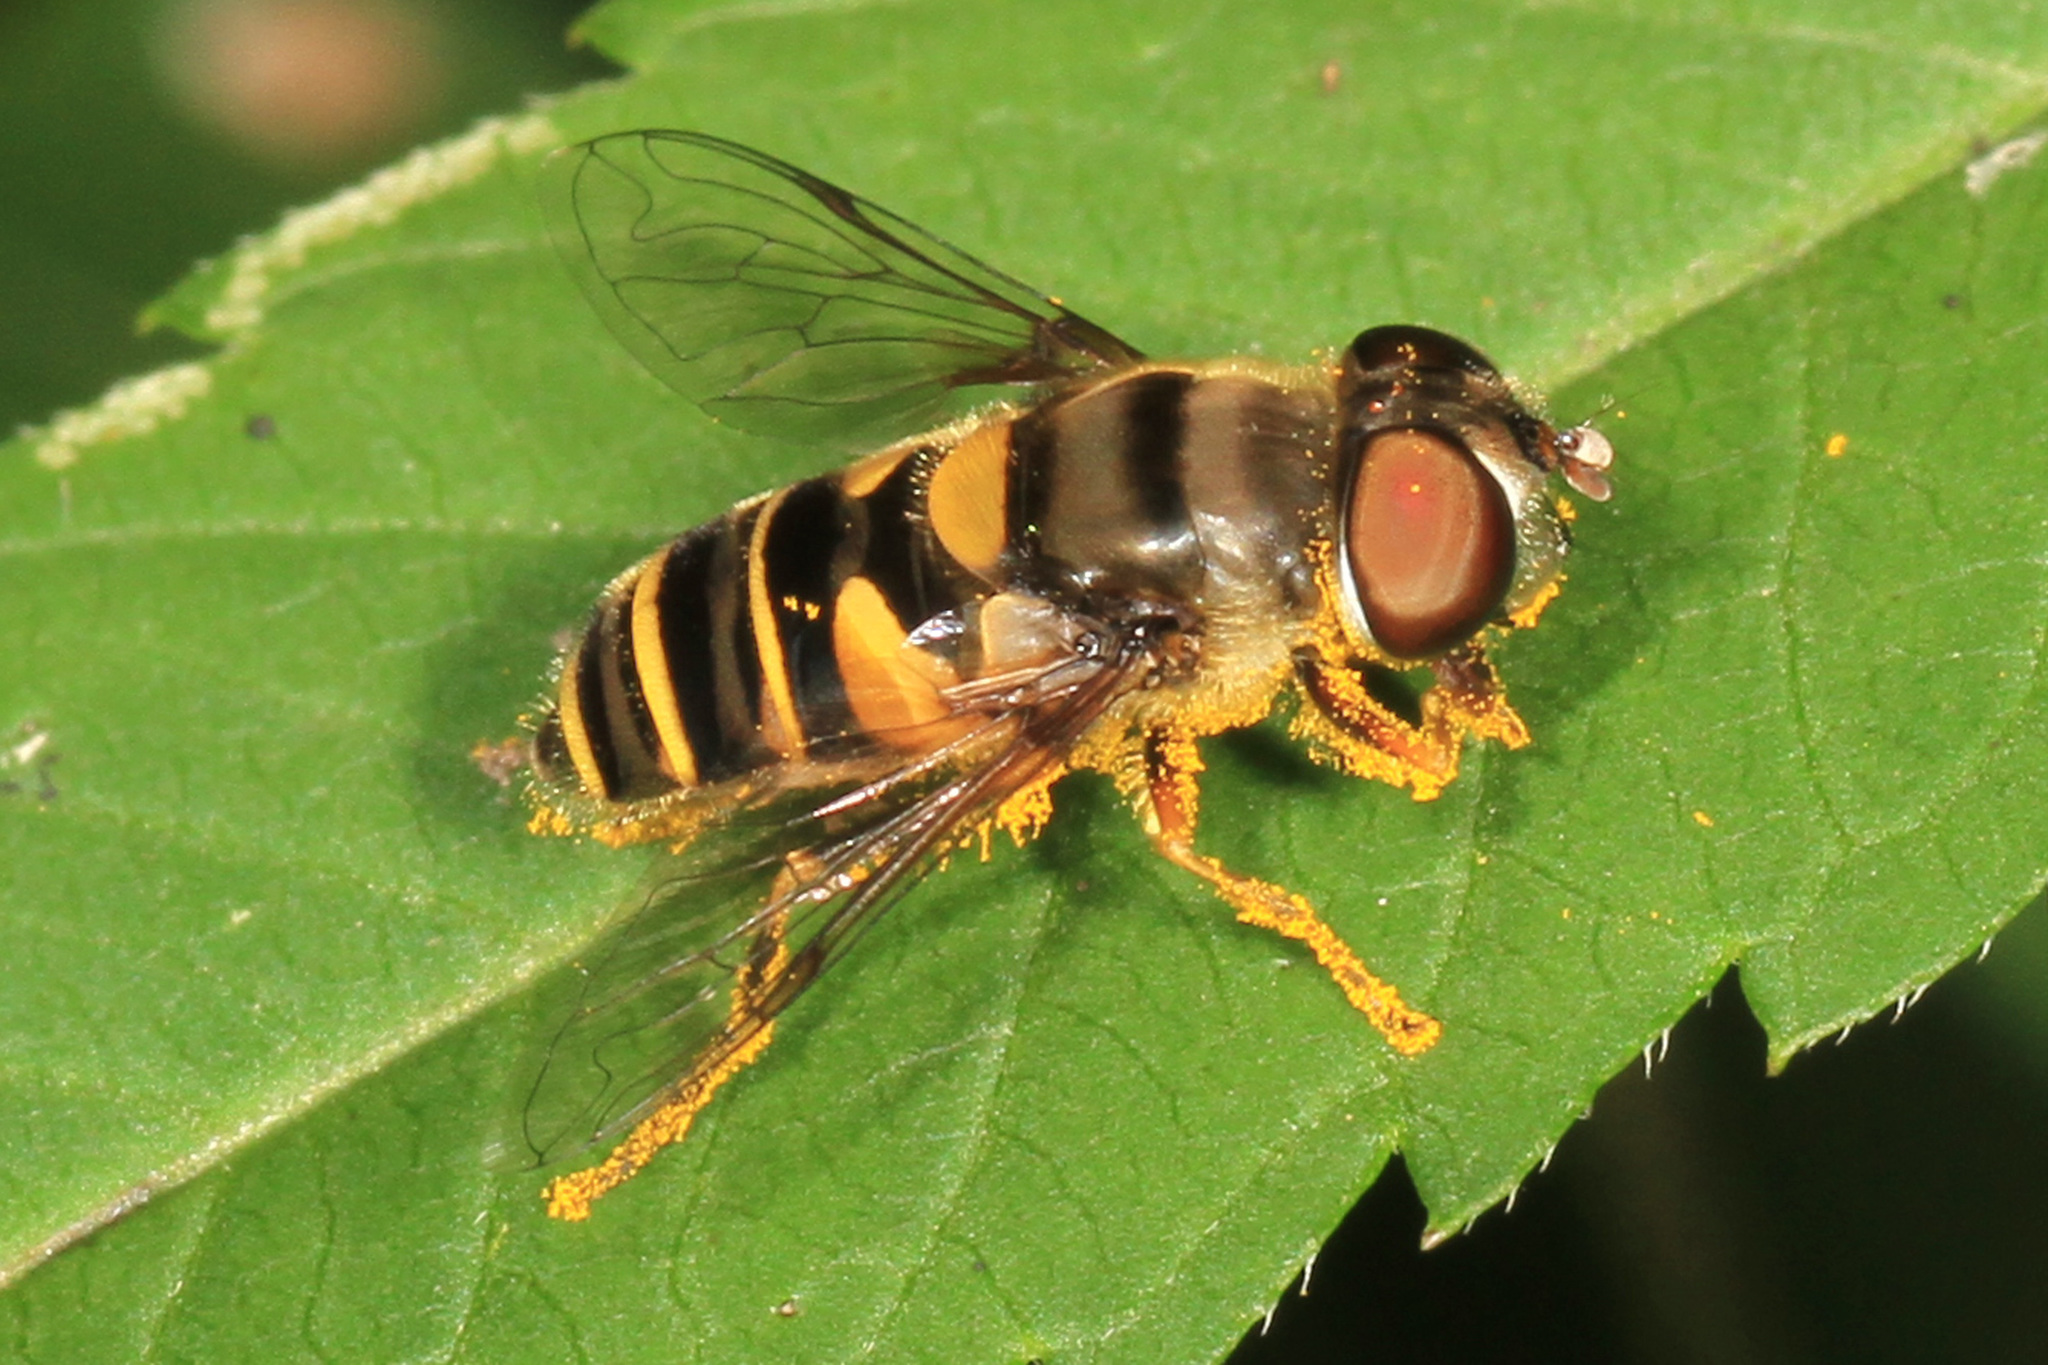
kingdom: Animalia
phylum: Arthropoda
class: Insecta
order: Diptera
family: Syrphidae
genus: Eristalis
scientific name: Eristalis transversa
